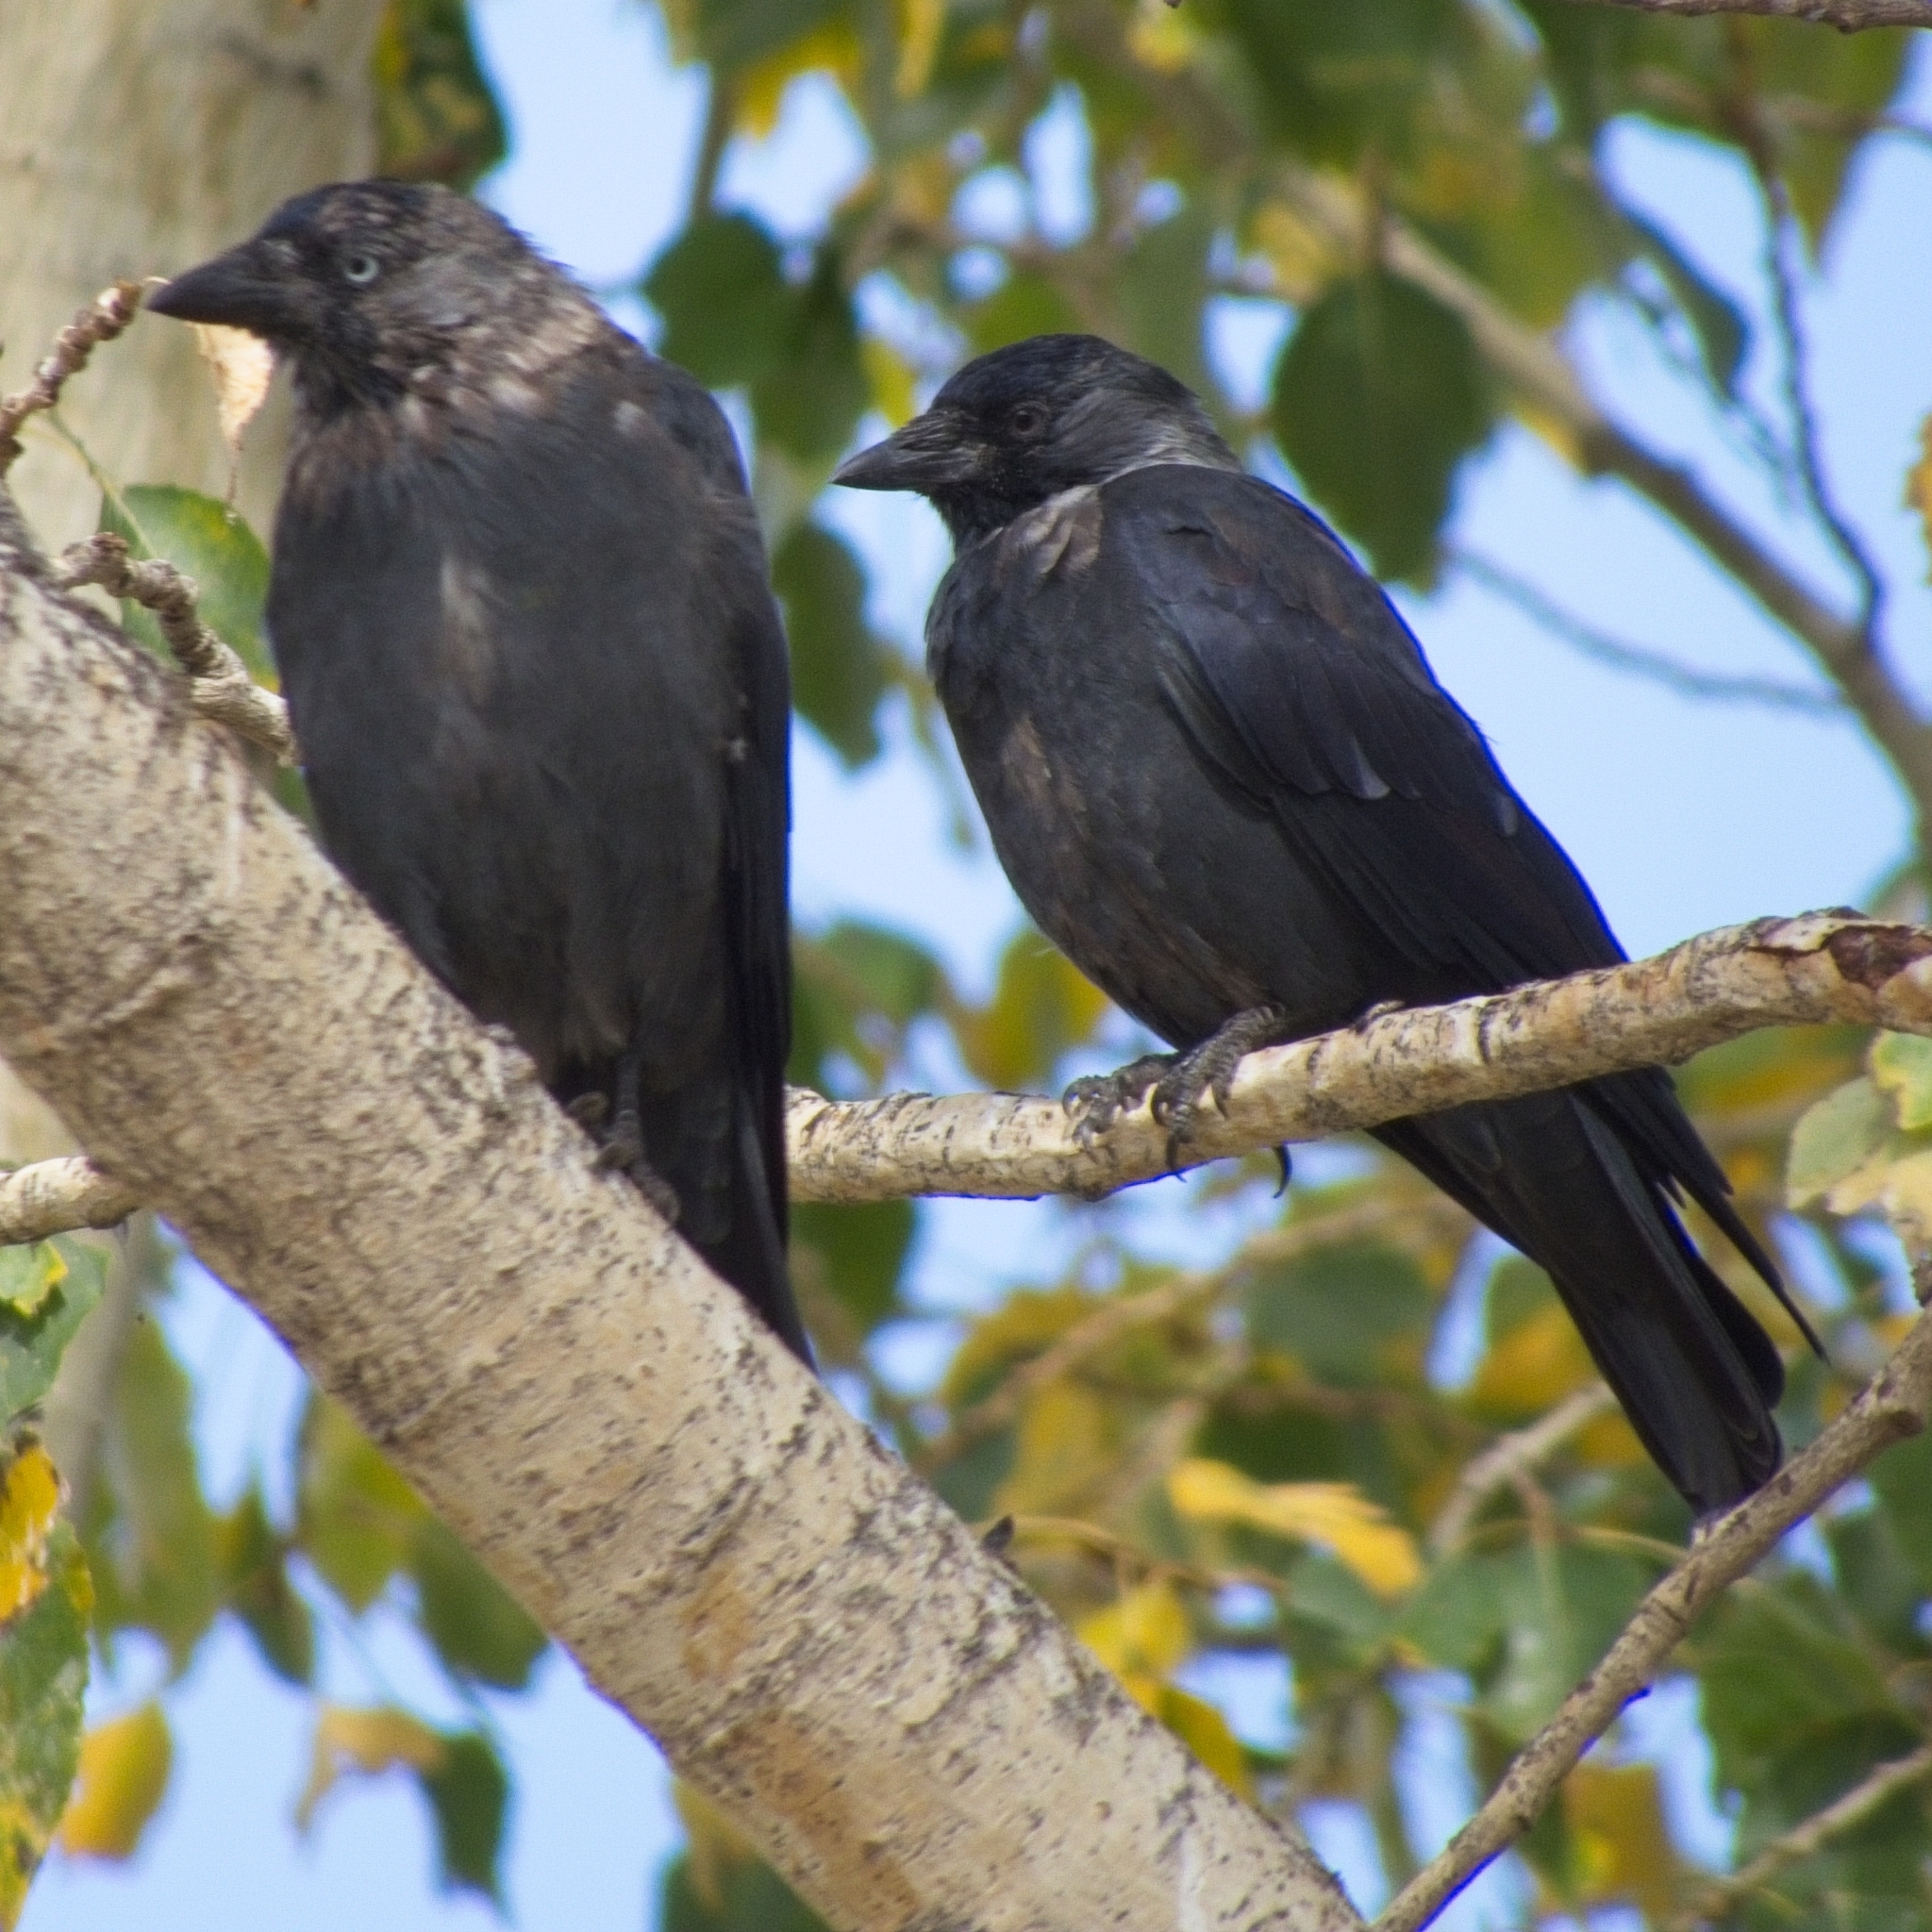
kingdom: Animalia
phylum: Chordata
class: Aves
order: Passeriformes
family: Corvidae
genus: Coloeus
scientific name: Coloeus monedula
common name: Western jackdaw
